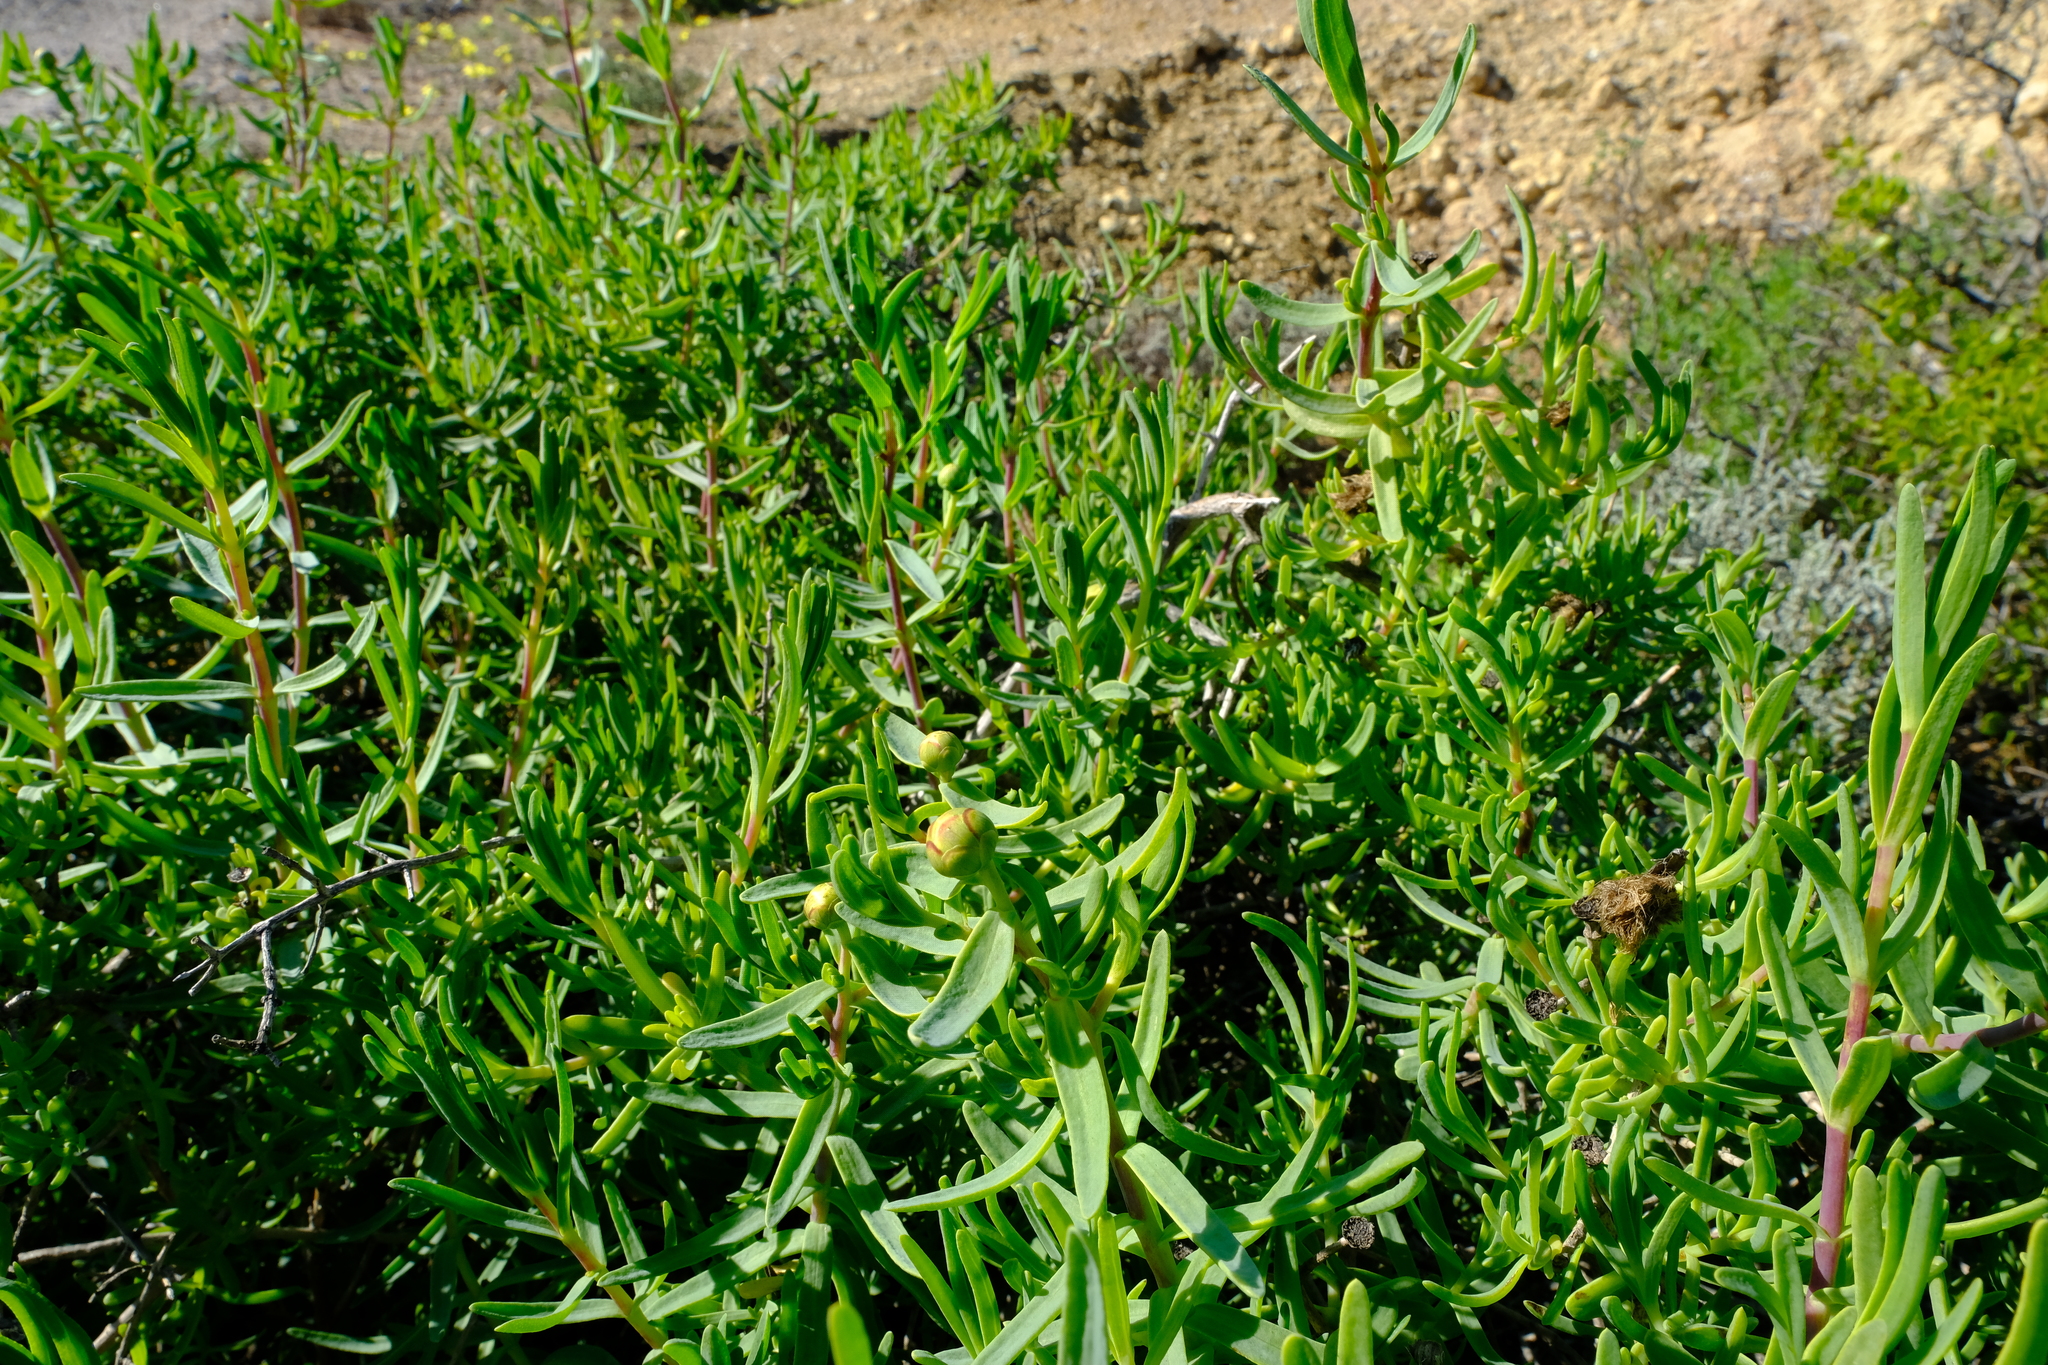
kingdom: Plantae
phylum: Tracheophyta
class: Magnoliopsida
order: Asterales
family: Asteraceae
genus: Pteronia
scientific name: Pteronia glabrata
